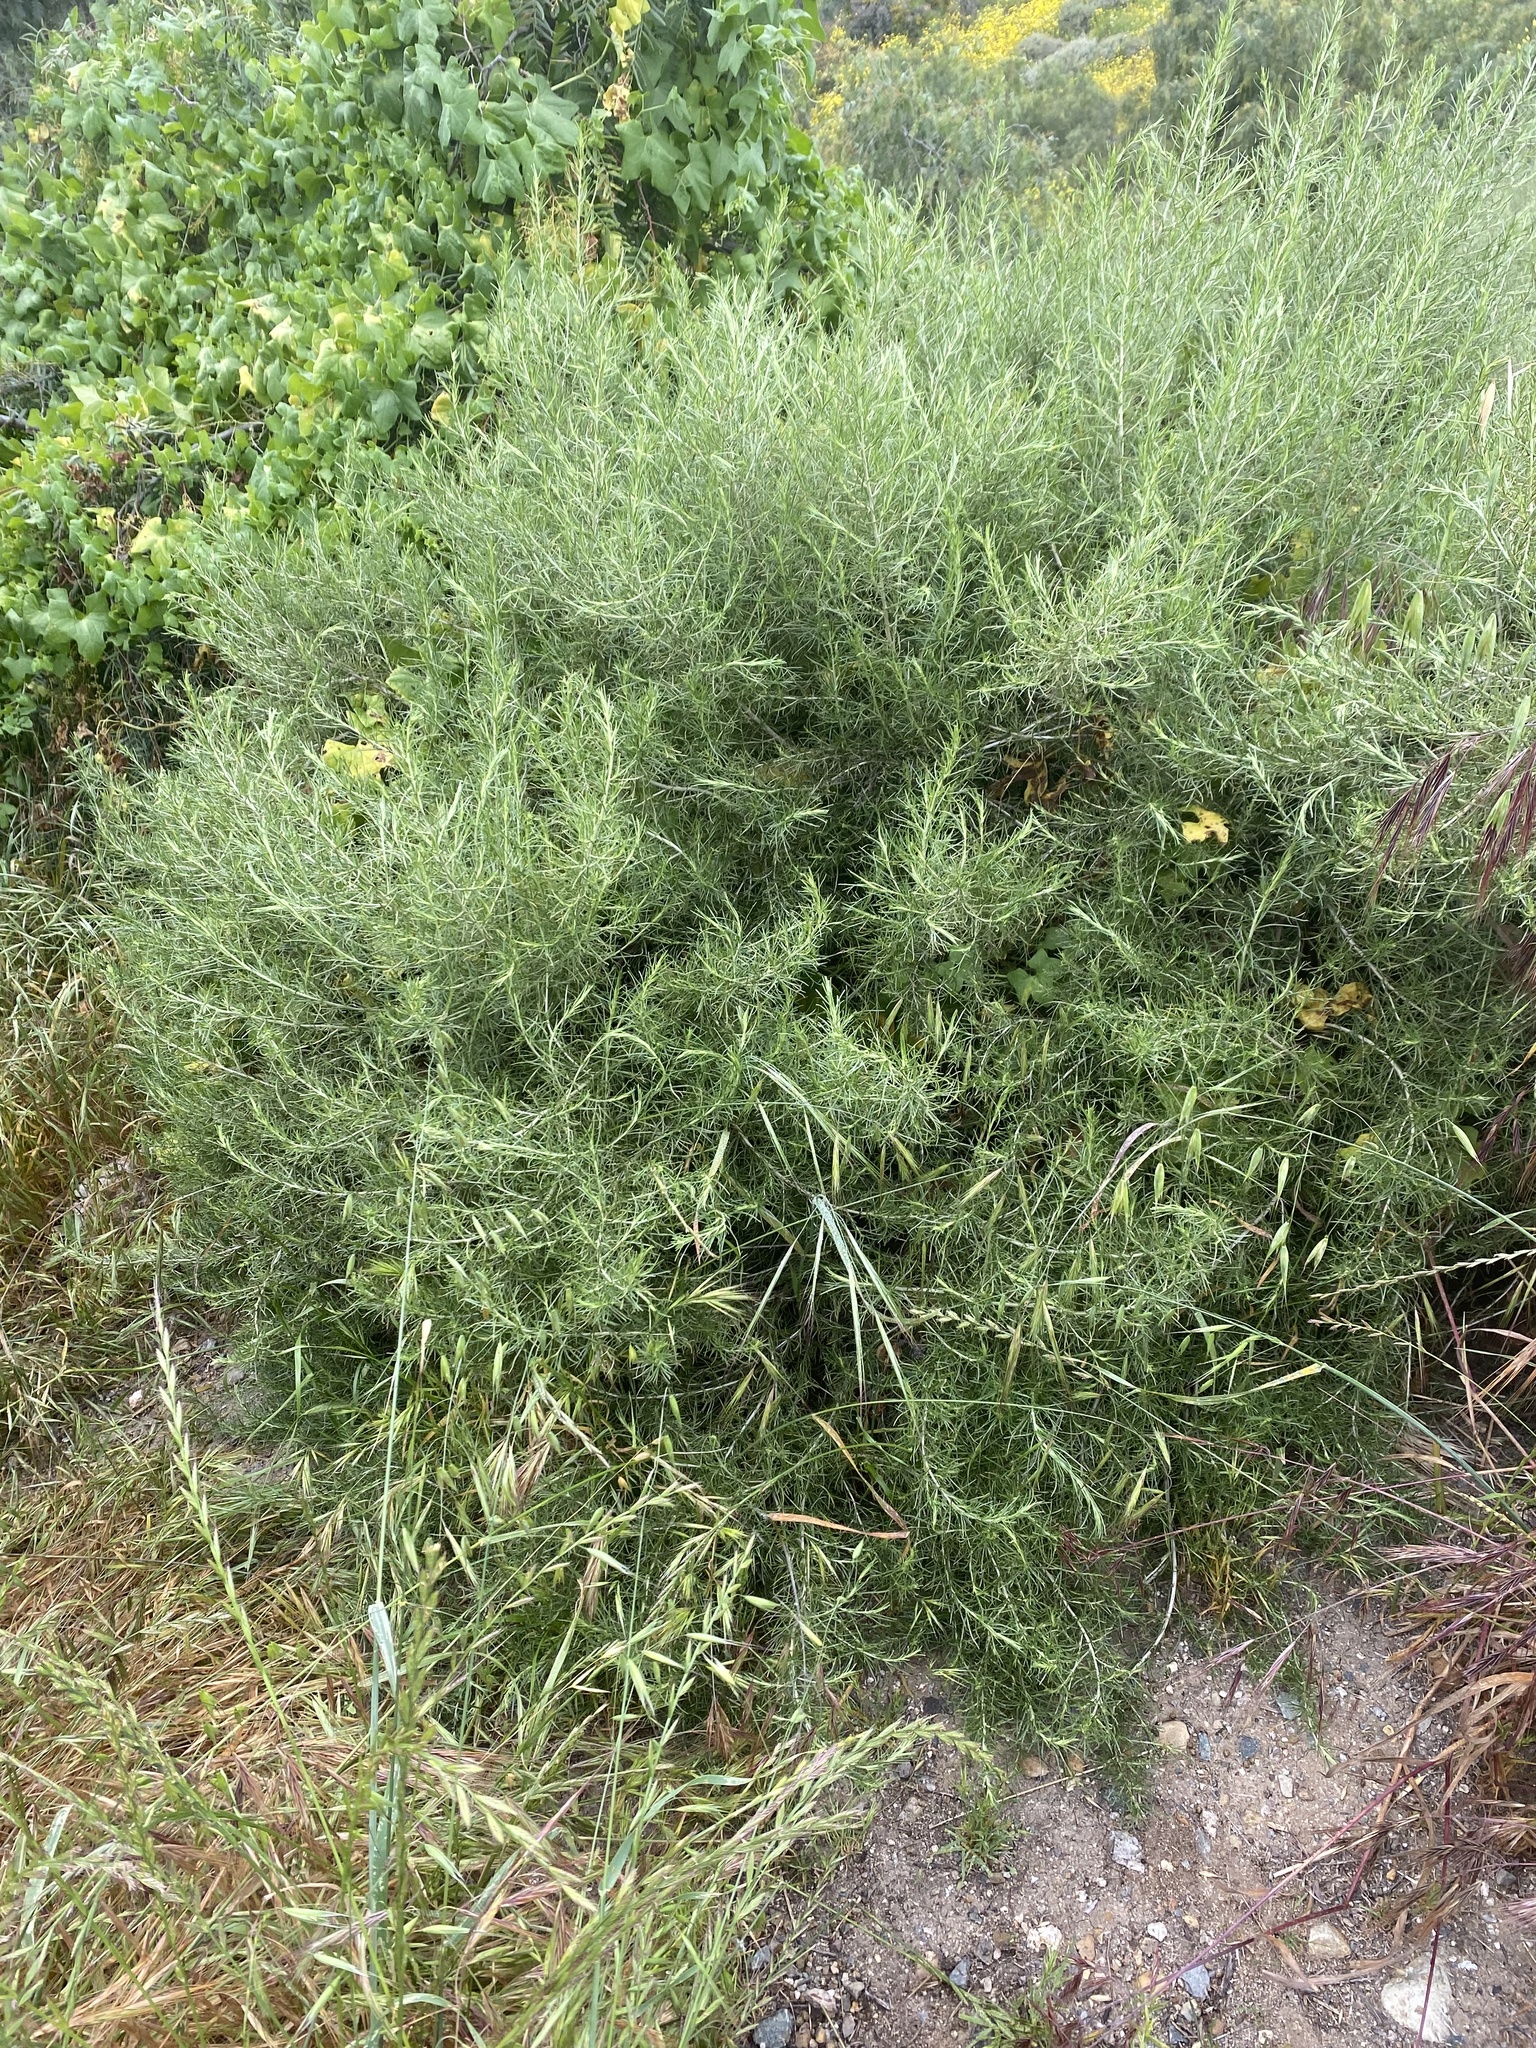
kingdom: Plantae
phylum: Tracheophyta
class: Magnoliopsida
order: Asterales
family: Asteraceae
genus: Artemisia
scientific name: Artemisia californica
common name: California sagebrush
